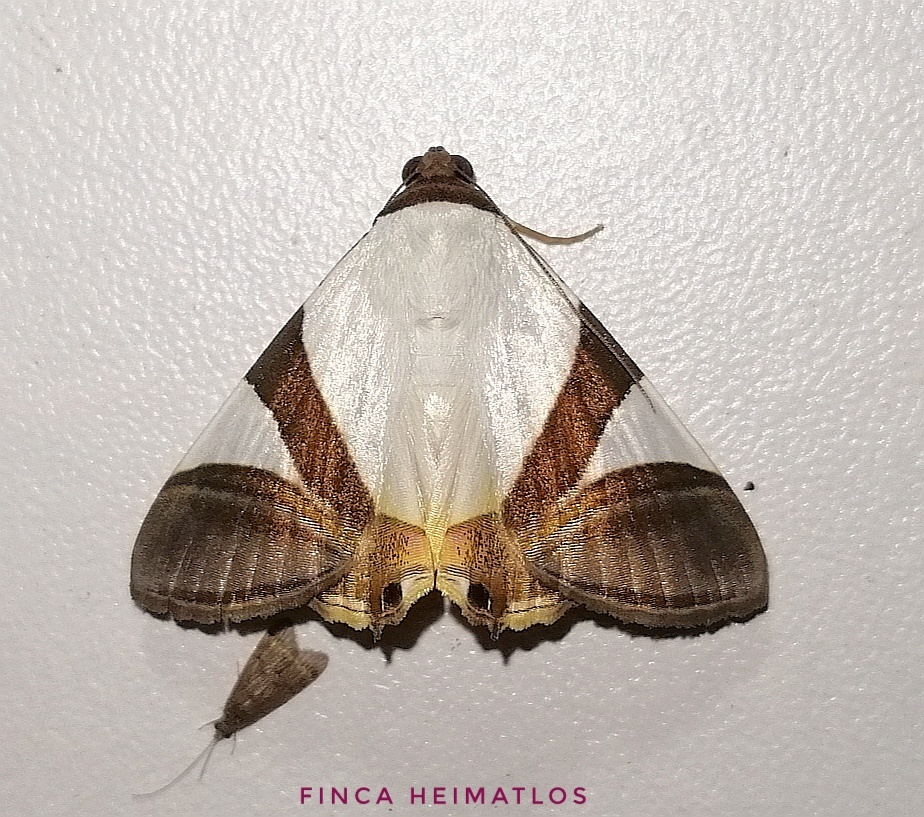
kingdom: Animalia
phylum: Arthropoda
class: Insecta
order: Lepidoptera
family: Erebidae
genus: Eulepidotis
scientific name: Eulepidotis
